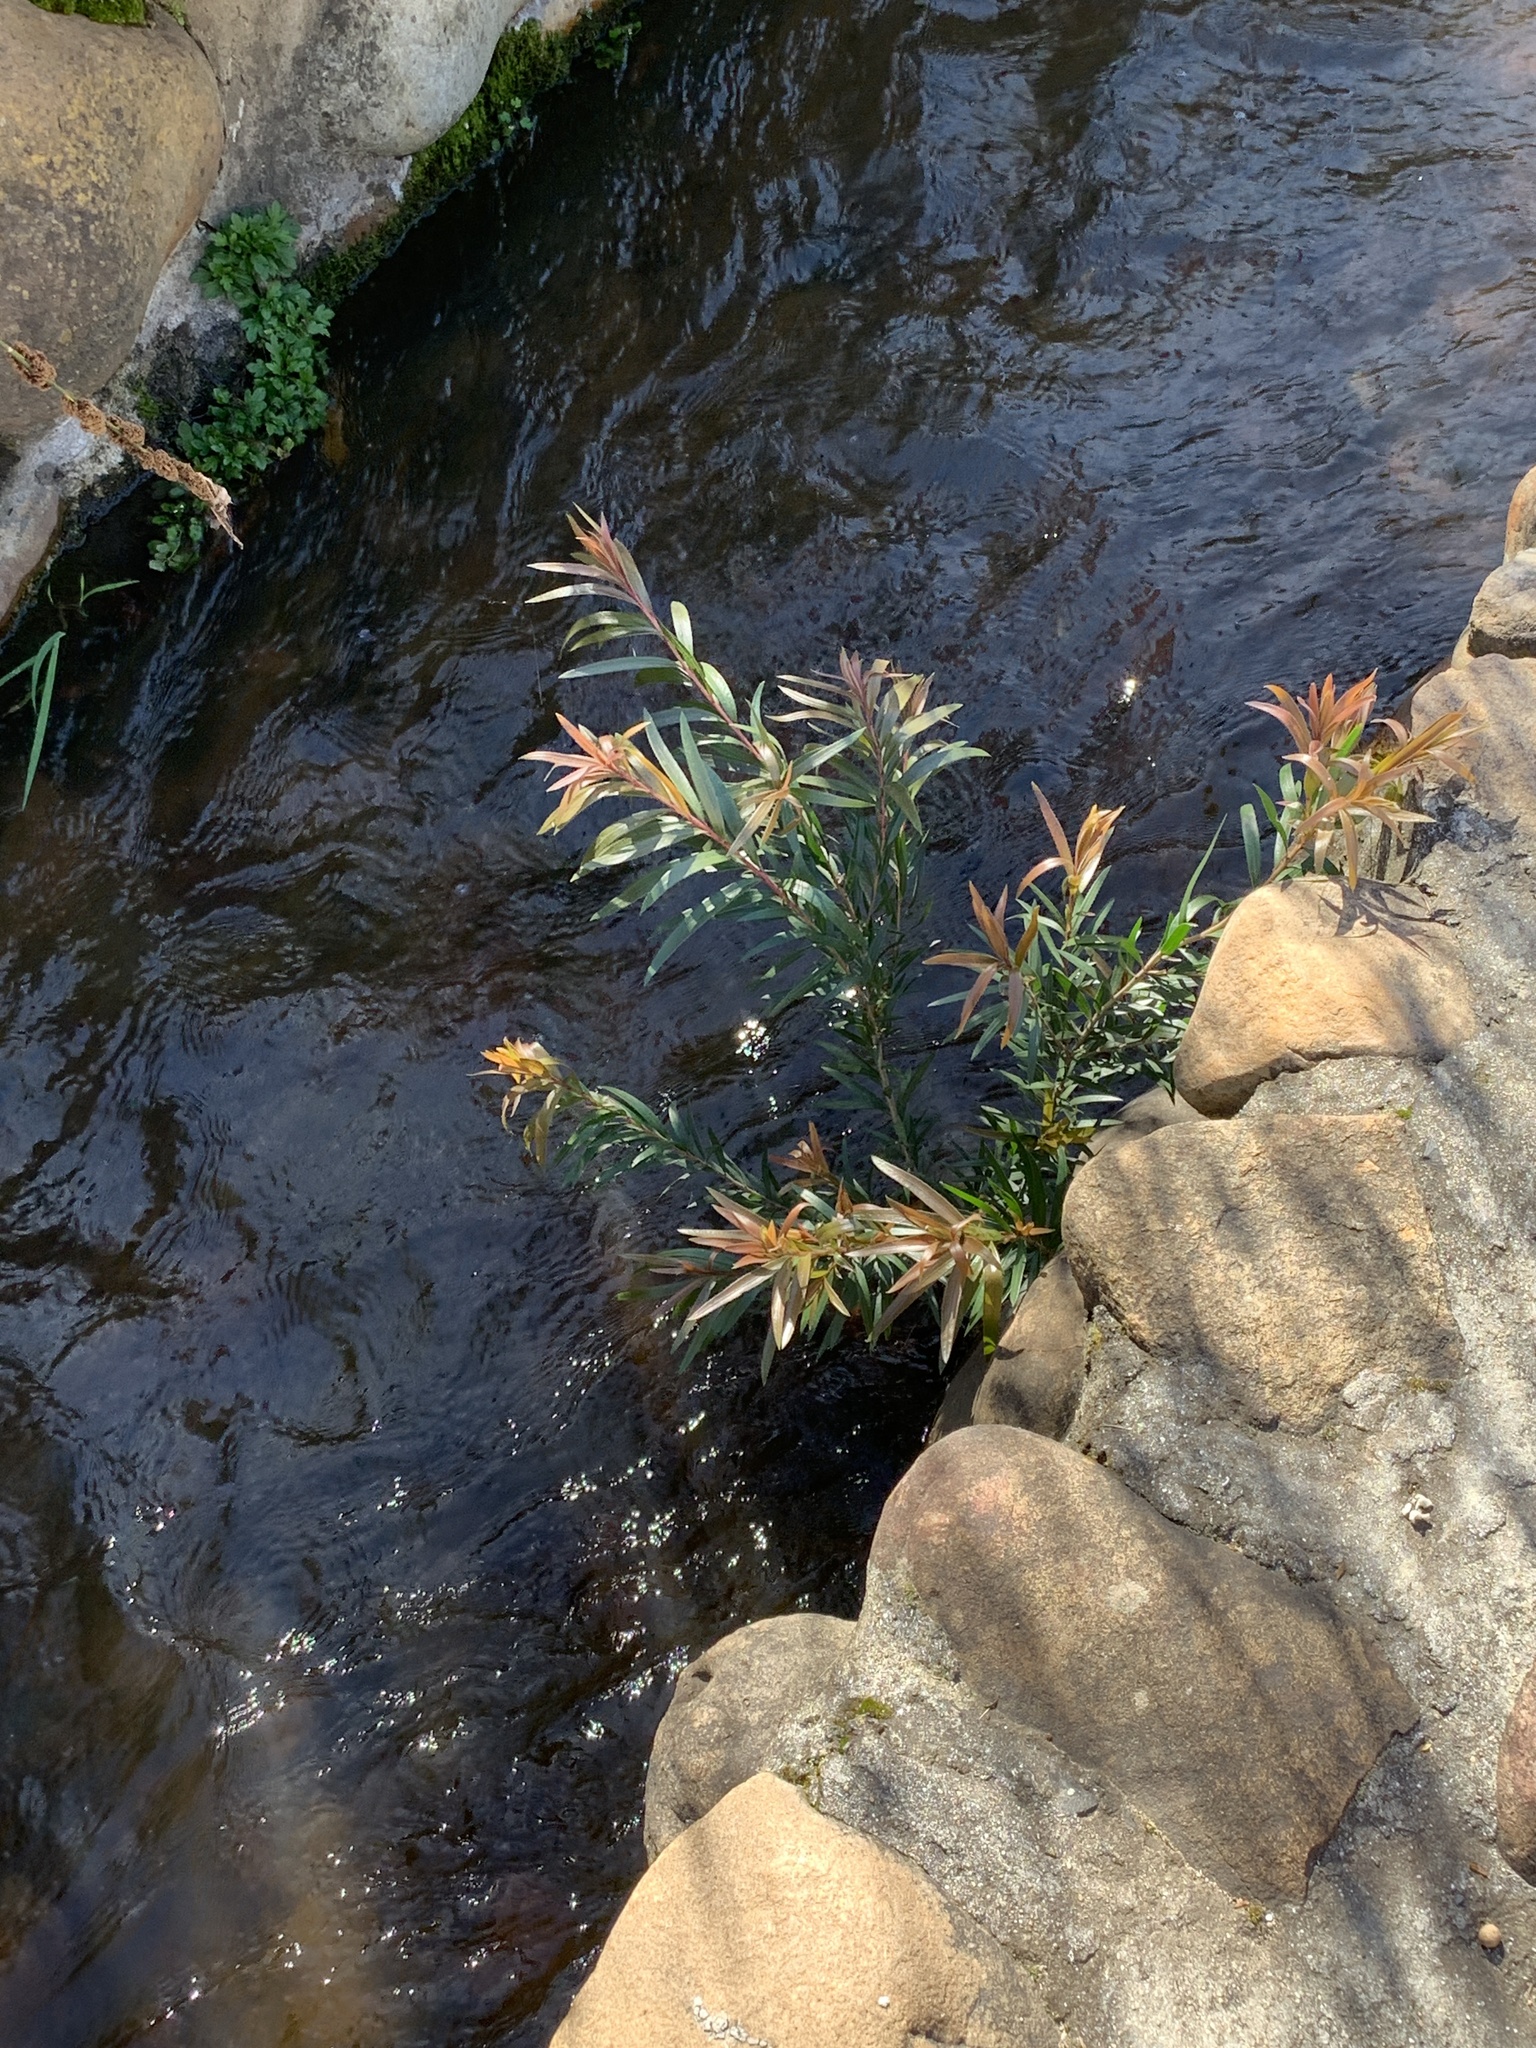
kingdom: Plantae
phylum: Tracheophyta
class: Magnoliopsida
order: Myrtales
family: Myrtaceae
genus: Callistemon
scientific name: Callistemon viminalis
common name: Drooping bottlebrush
